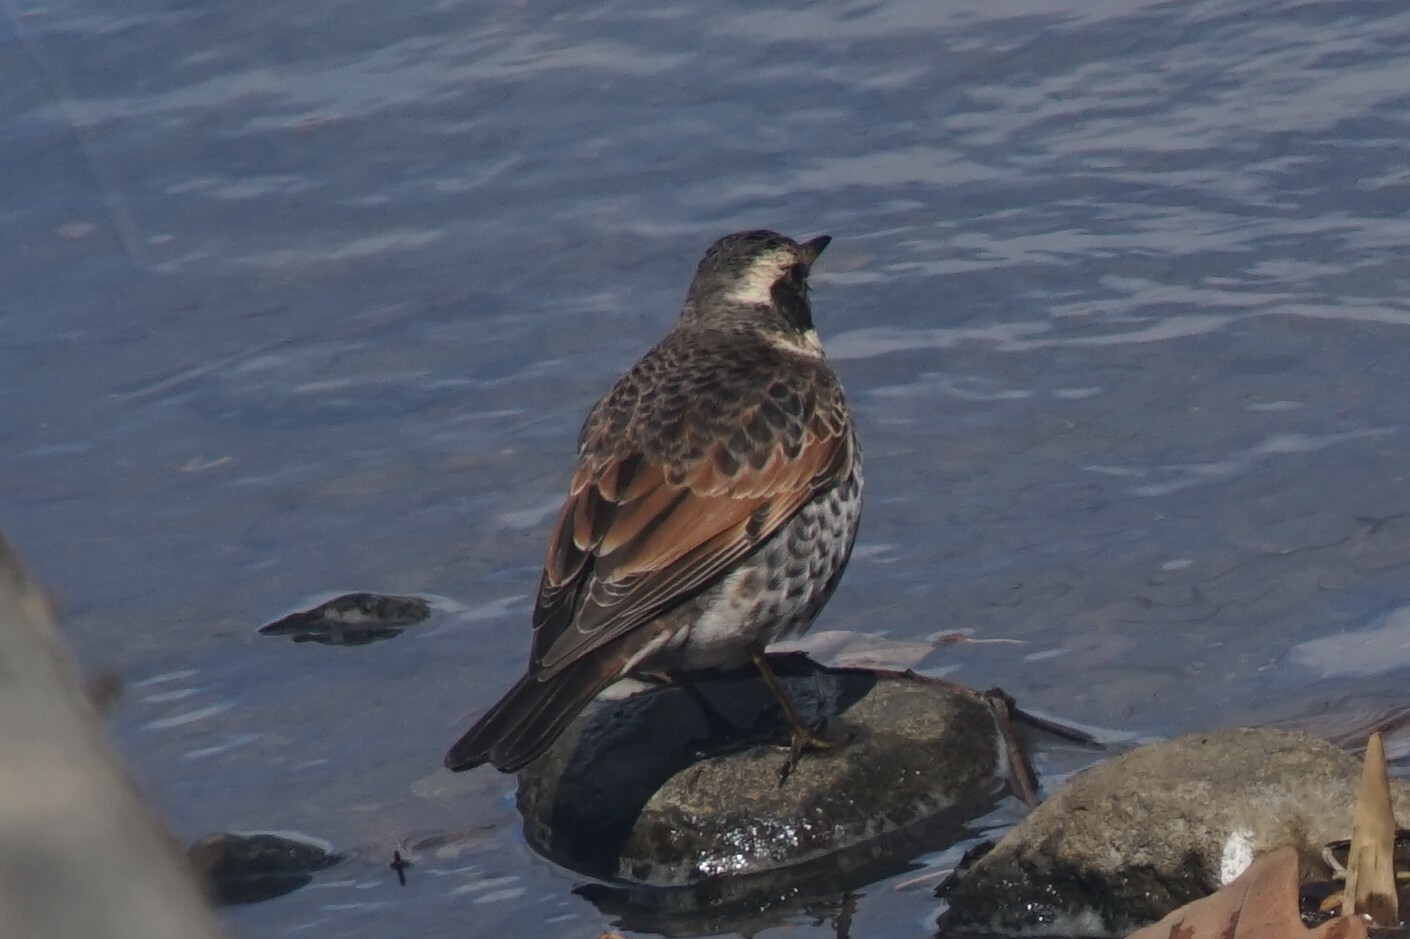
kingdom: Animalia
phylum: Chordata
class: Aves
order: Passeriformes
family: Turdidae
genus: Turdus
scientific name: Turdus eunomus
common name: Dusky thrush
